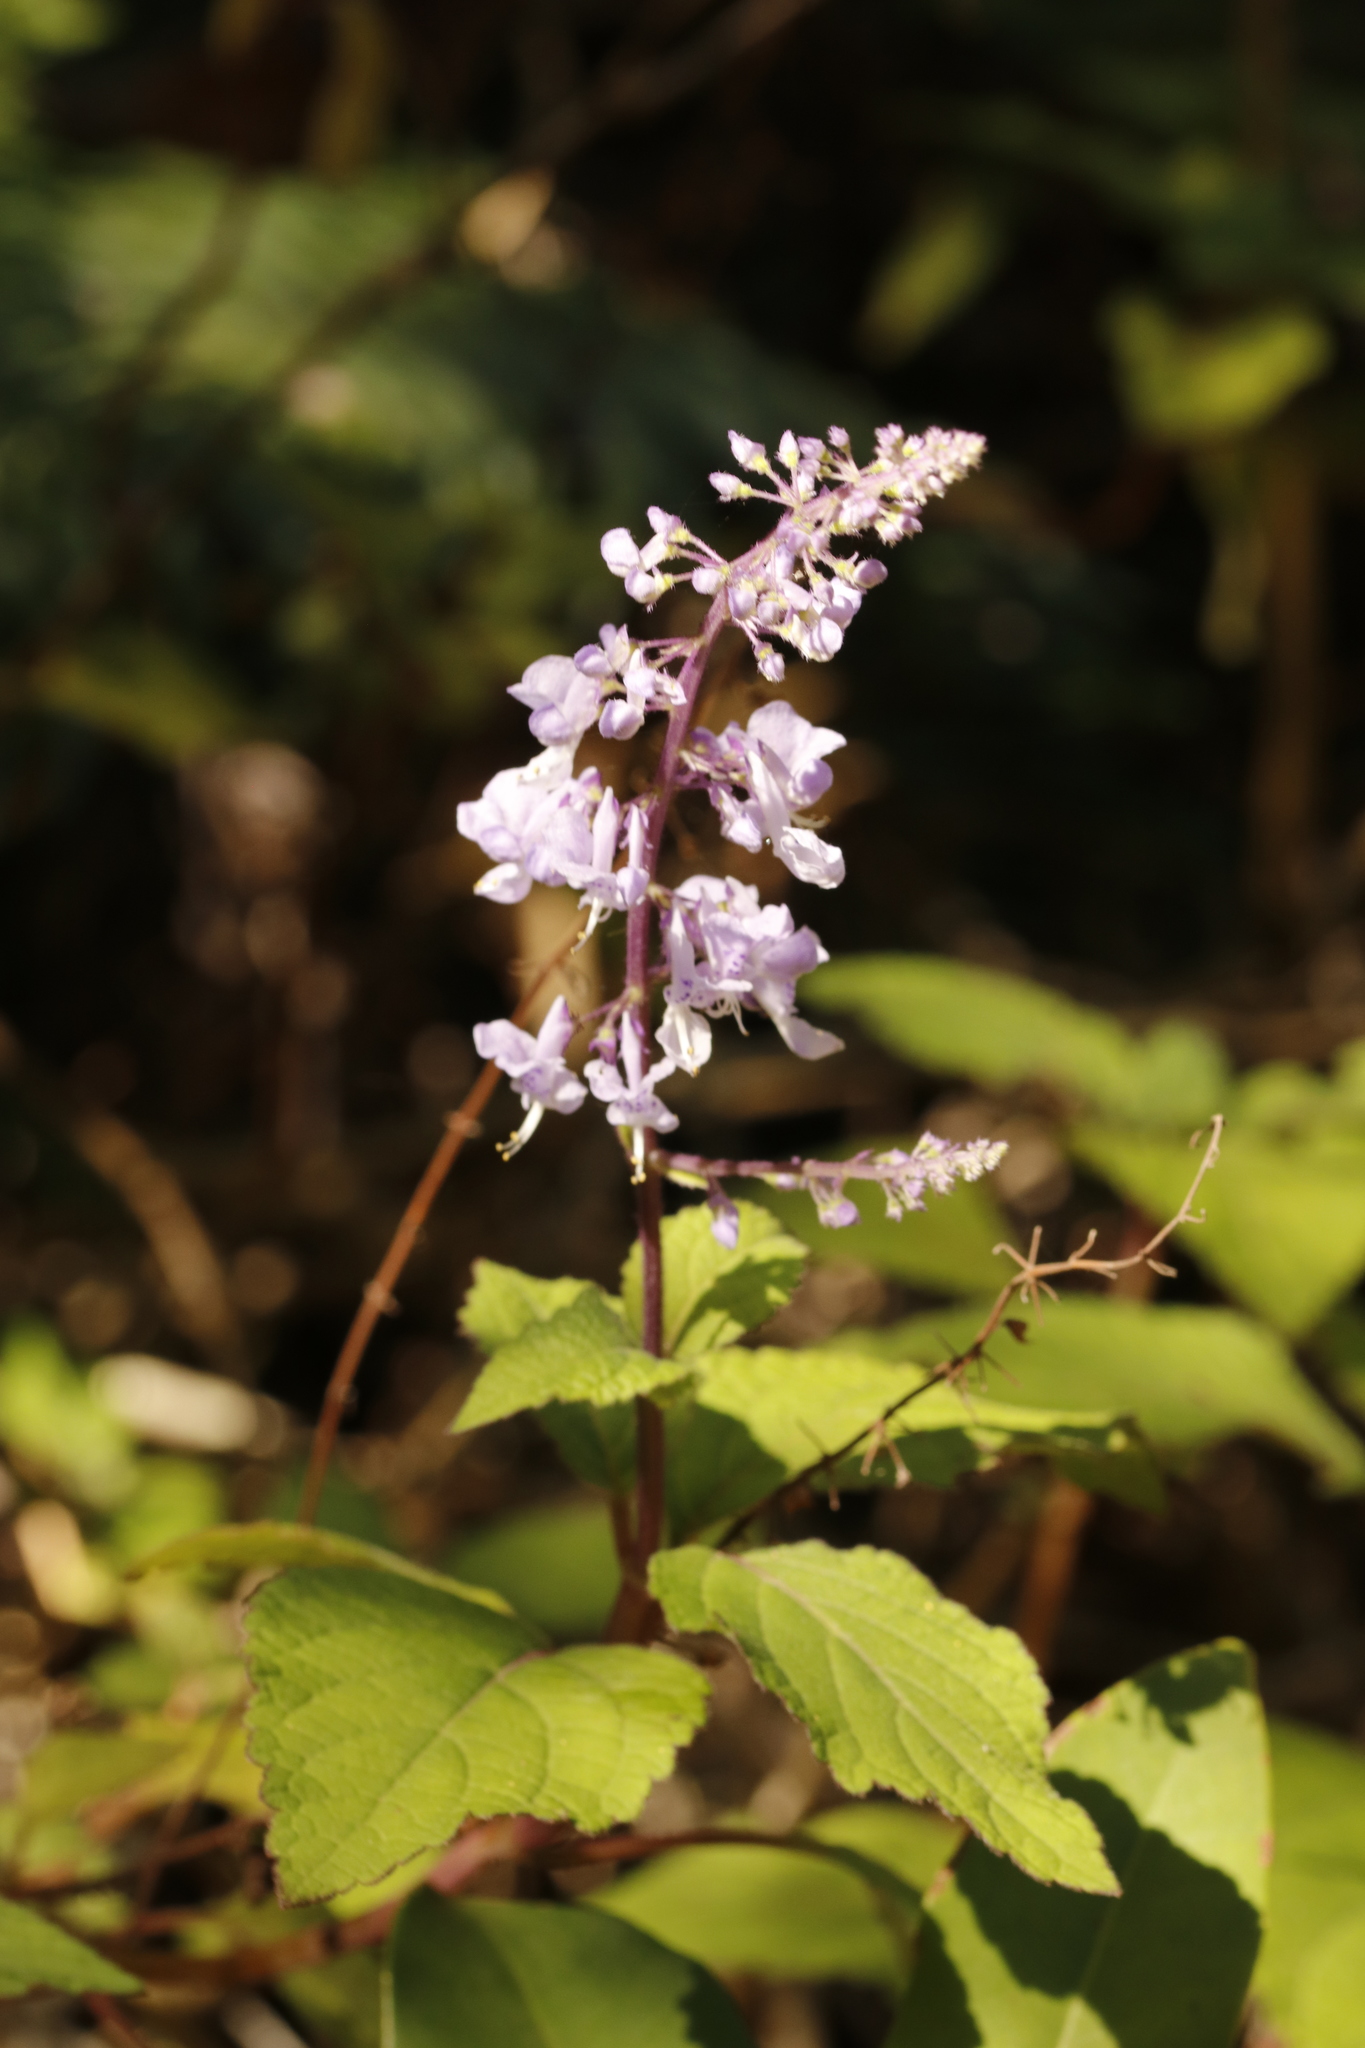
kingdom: Plantae
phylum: Tracheophyta
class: Magnoliopsida
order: Lamiales
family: Lamiaceae
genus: Plectranthus
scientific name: Plectranthus fruticosus
